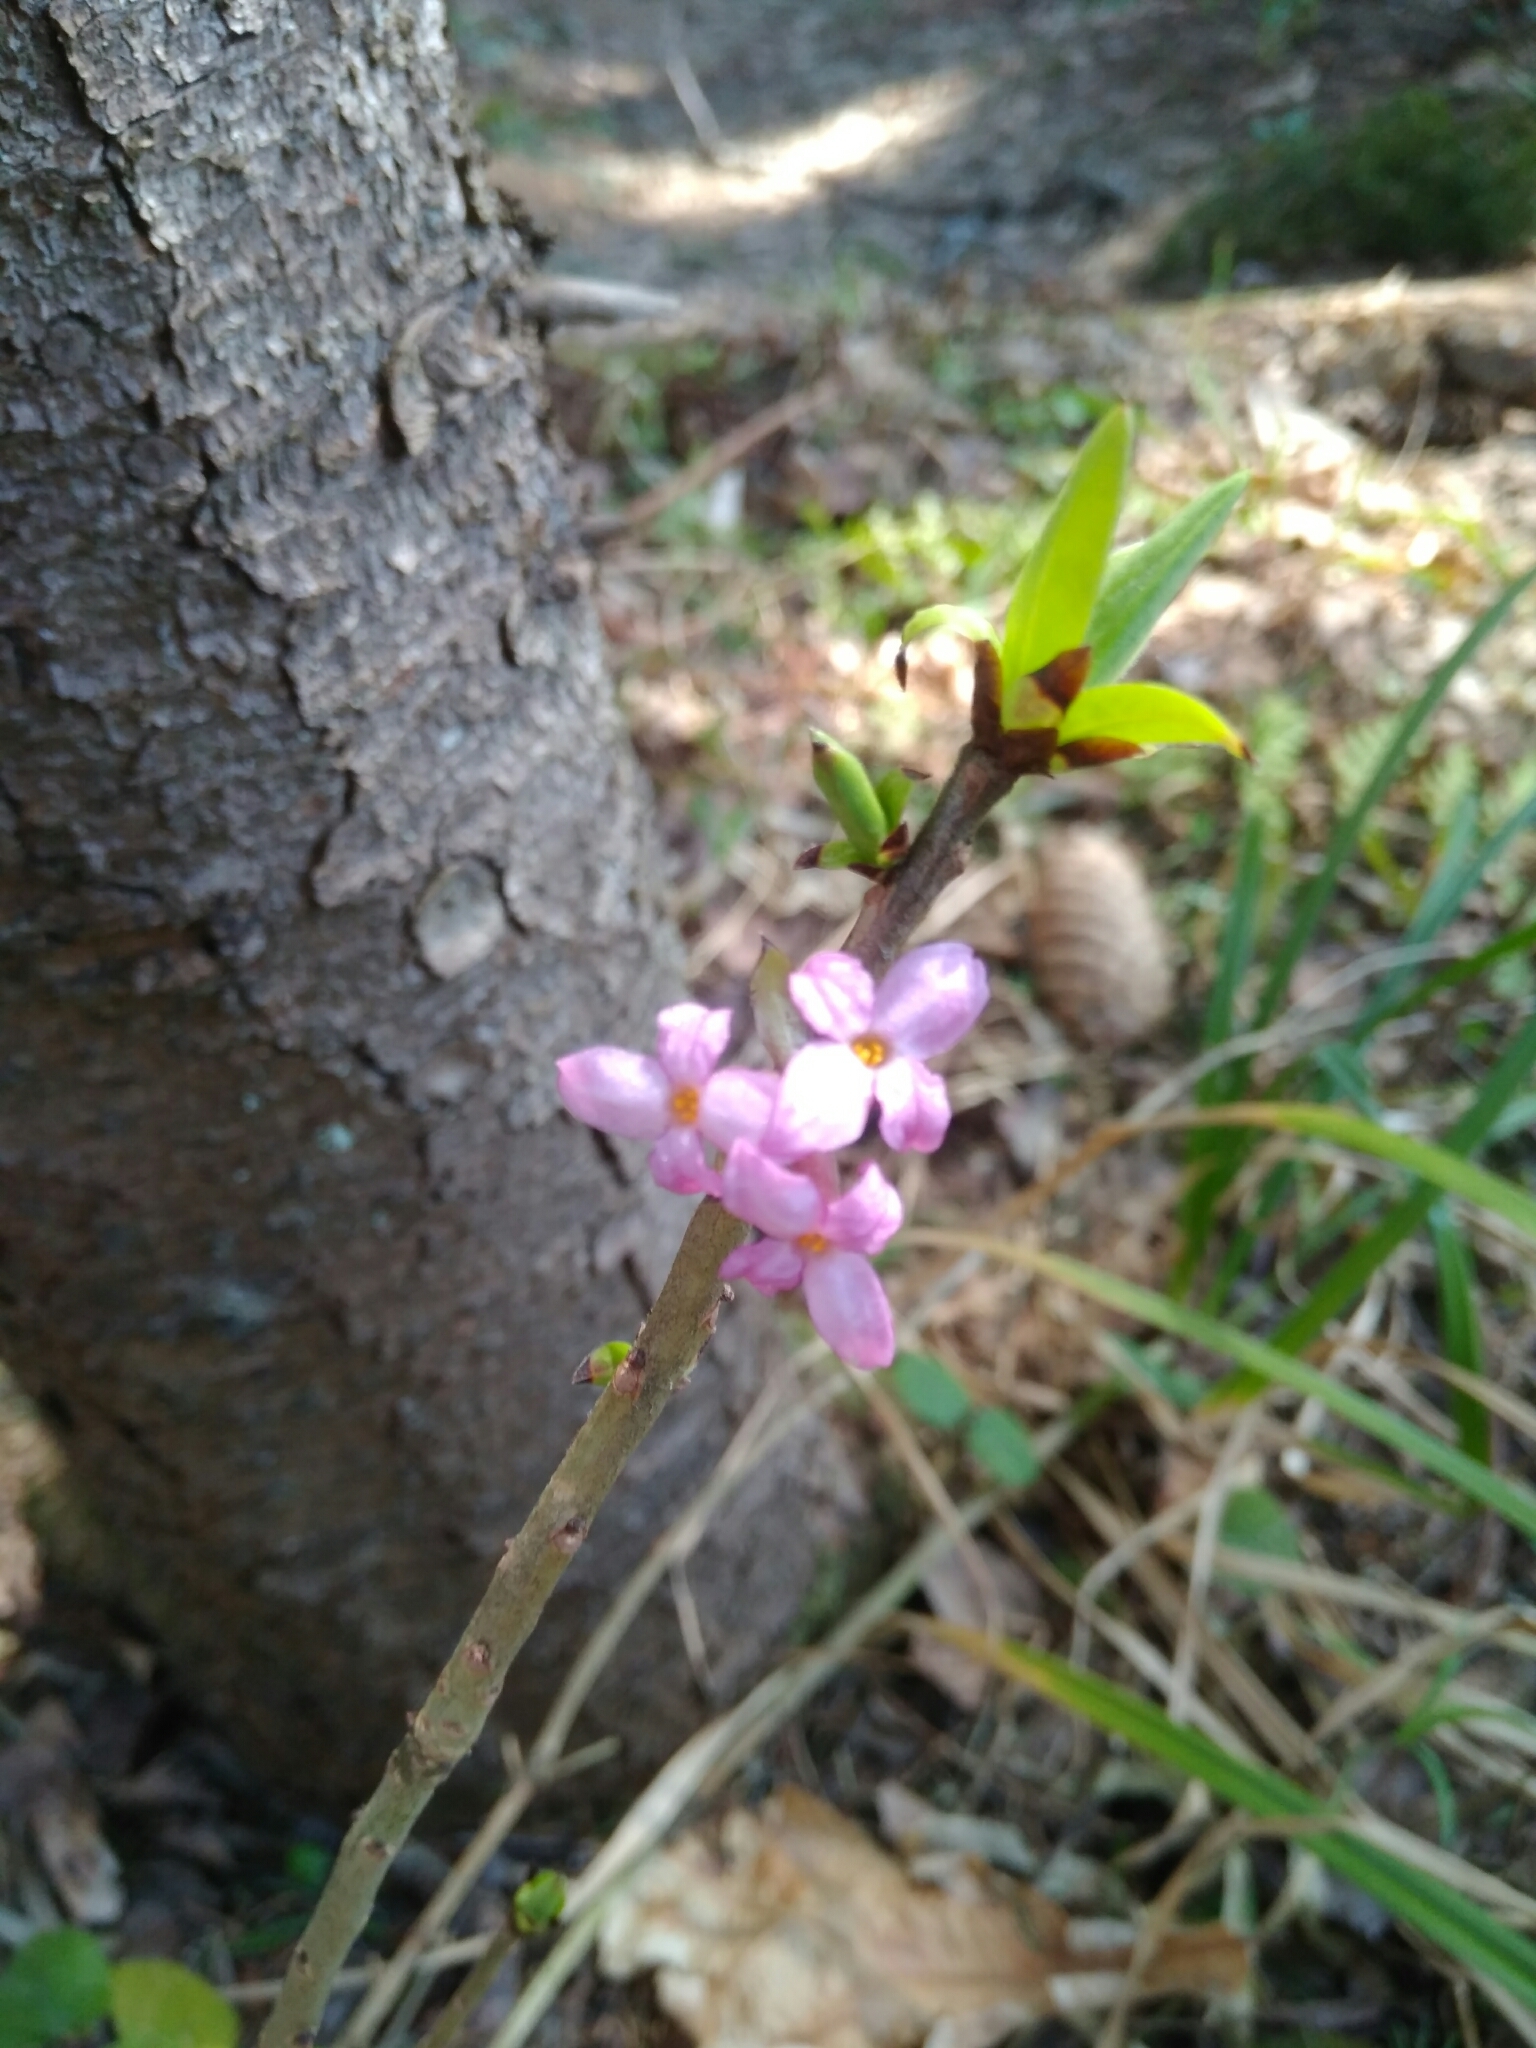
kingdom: Plantae
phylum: Tracheophyta
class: Magnoliopsida
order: Malvales
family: Thymelaeaceae
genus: Daphne
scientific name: Daphne mezereum
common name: Mezereon
